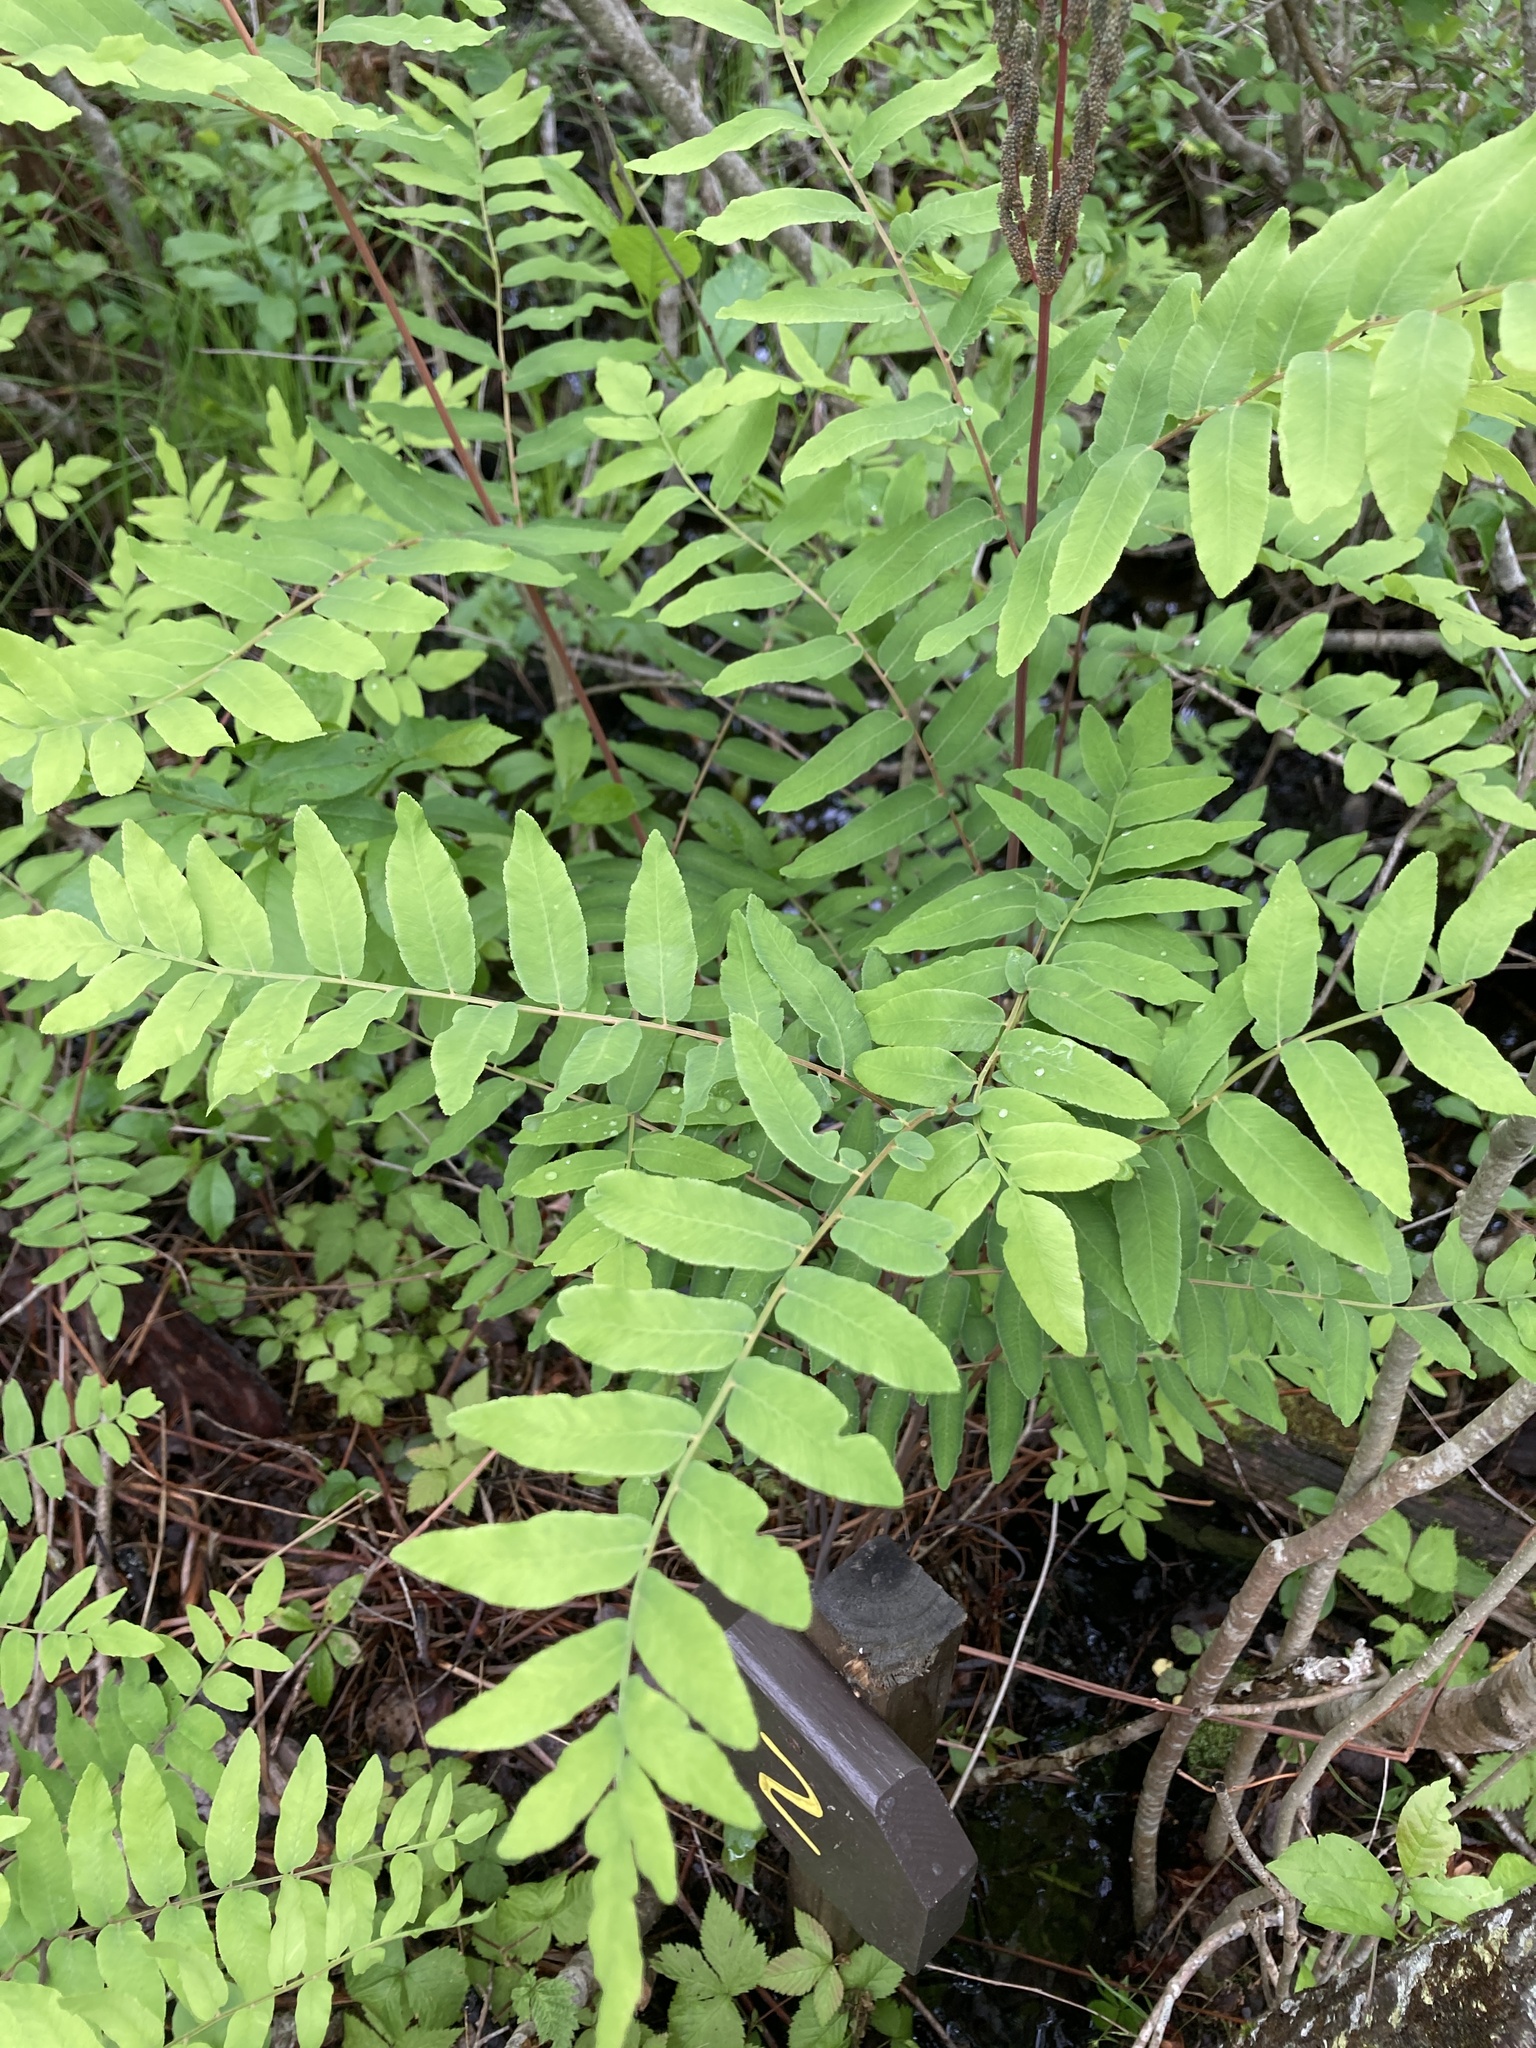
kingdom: Plantae
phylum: Tracheophyta
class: Polypodiopsida
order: Osmundales
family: Osmundaceae
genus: Osmunda
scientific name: Osmunda spectabilis
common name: American royal fern
